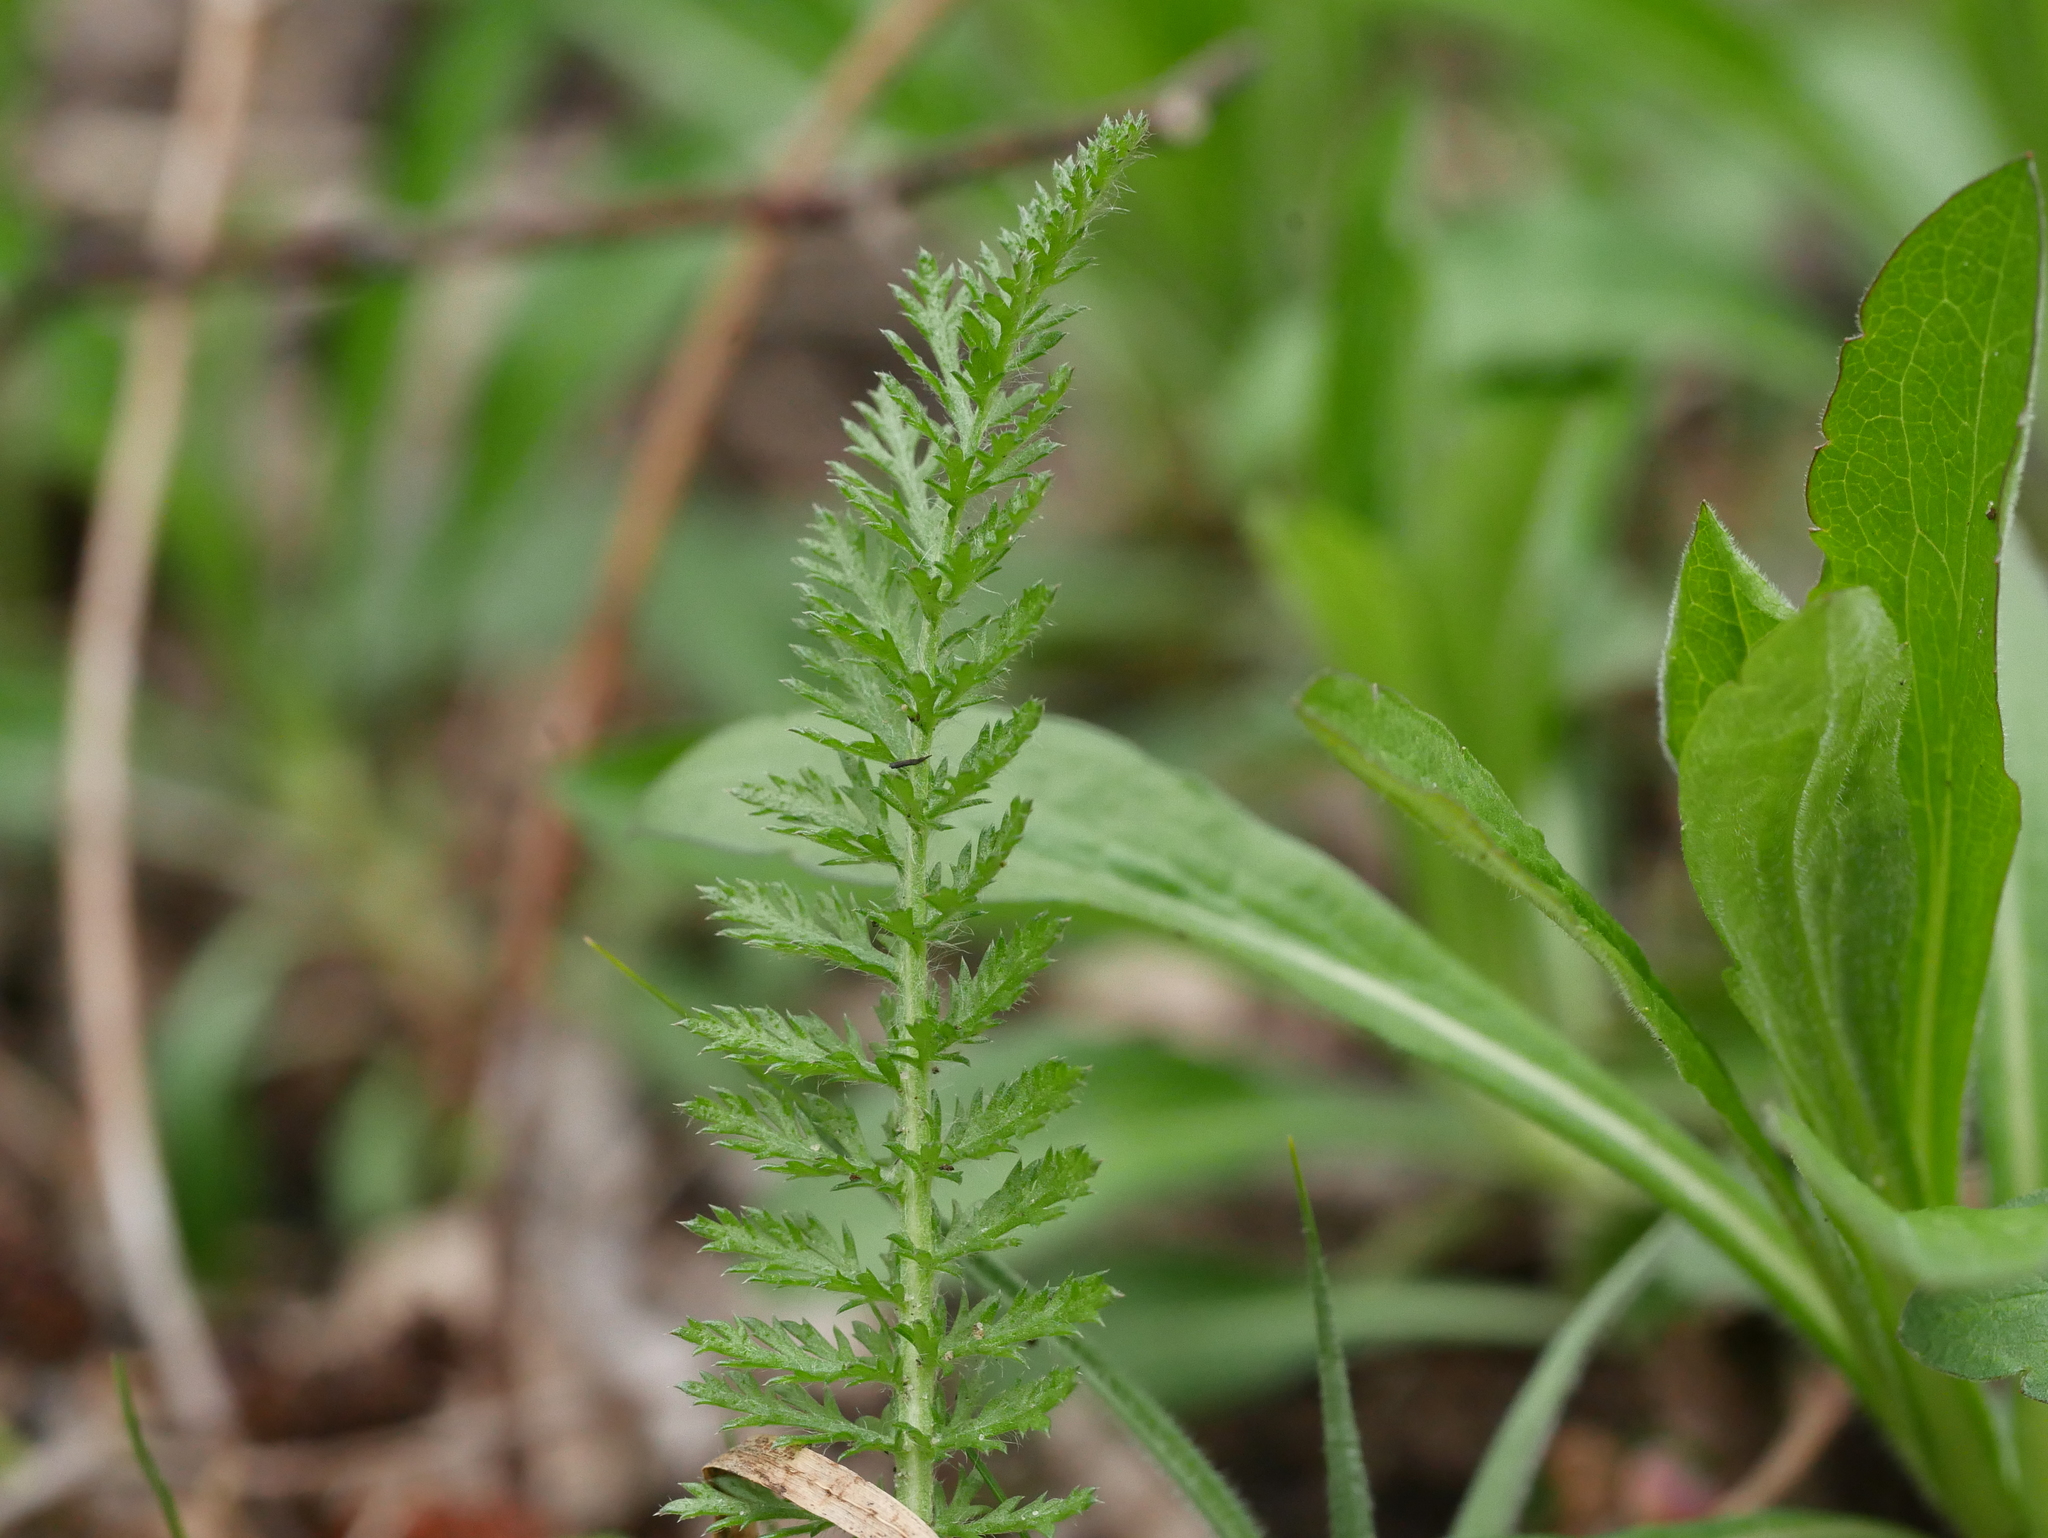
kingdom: Plantae
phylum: Tracheophyta
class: Magnoliopsida
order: Asterales
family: Asteraceae
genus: Achillea
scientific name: Achillea millefolium
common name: Yarrow
